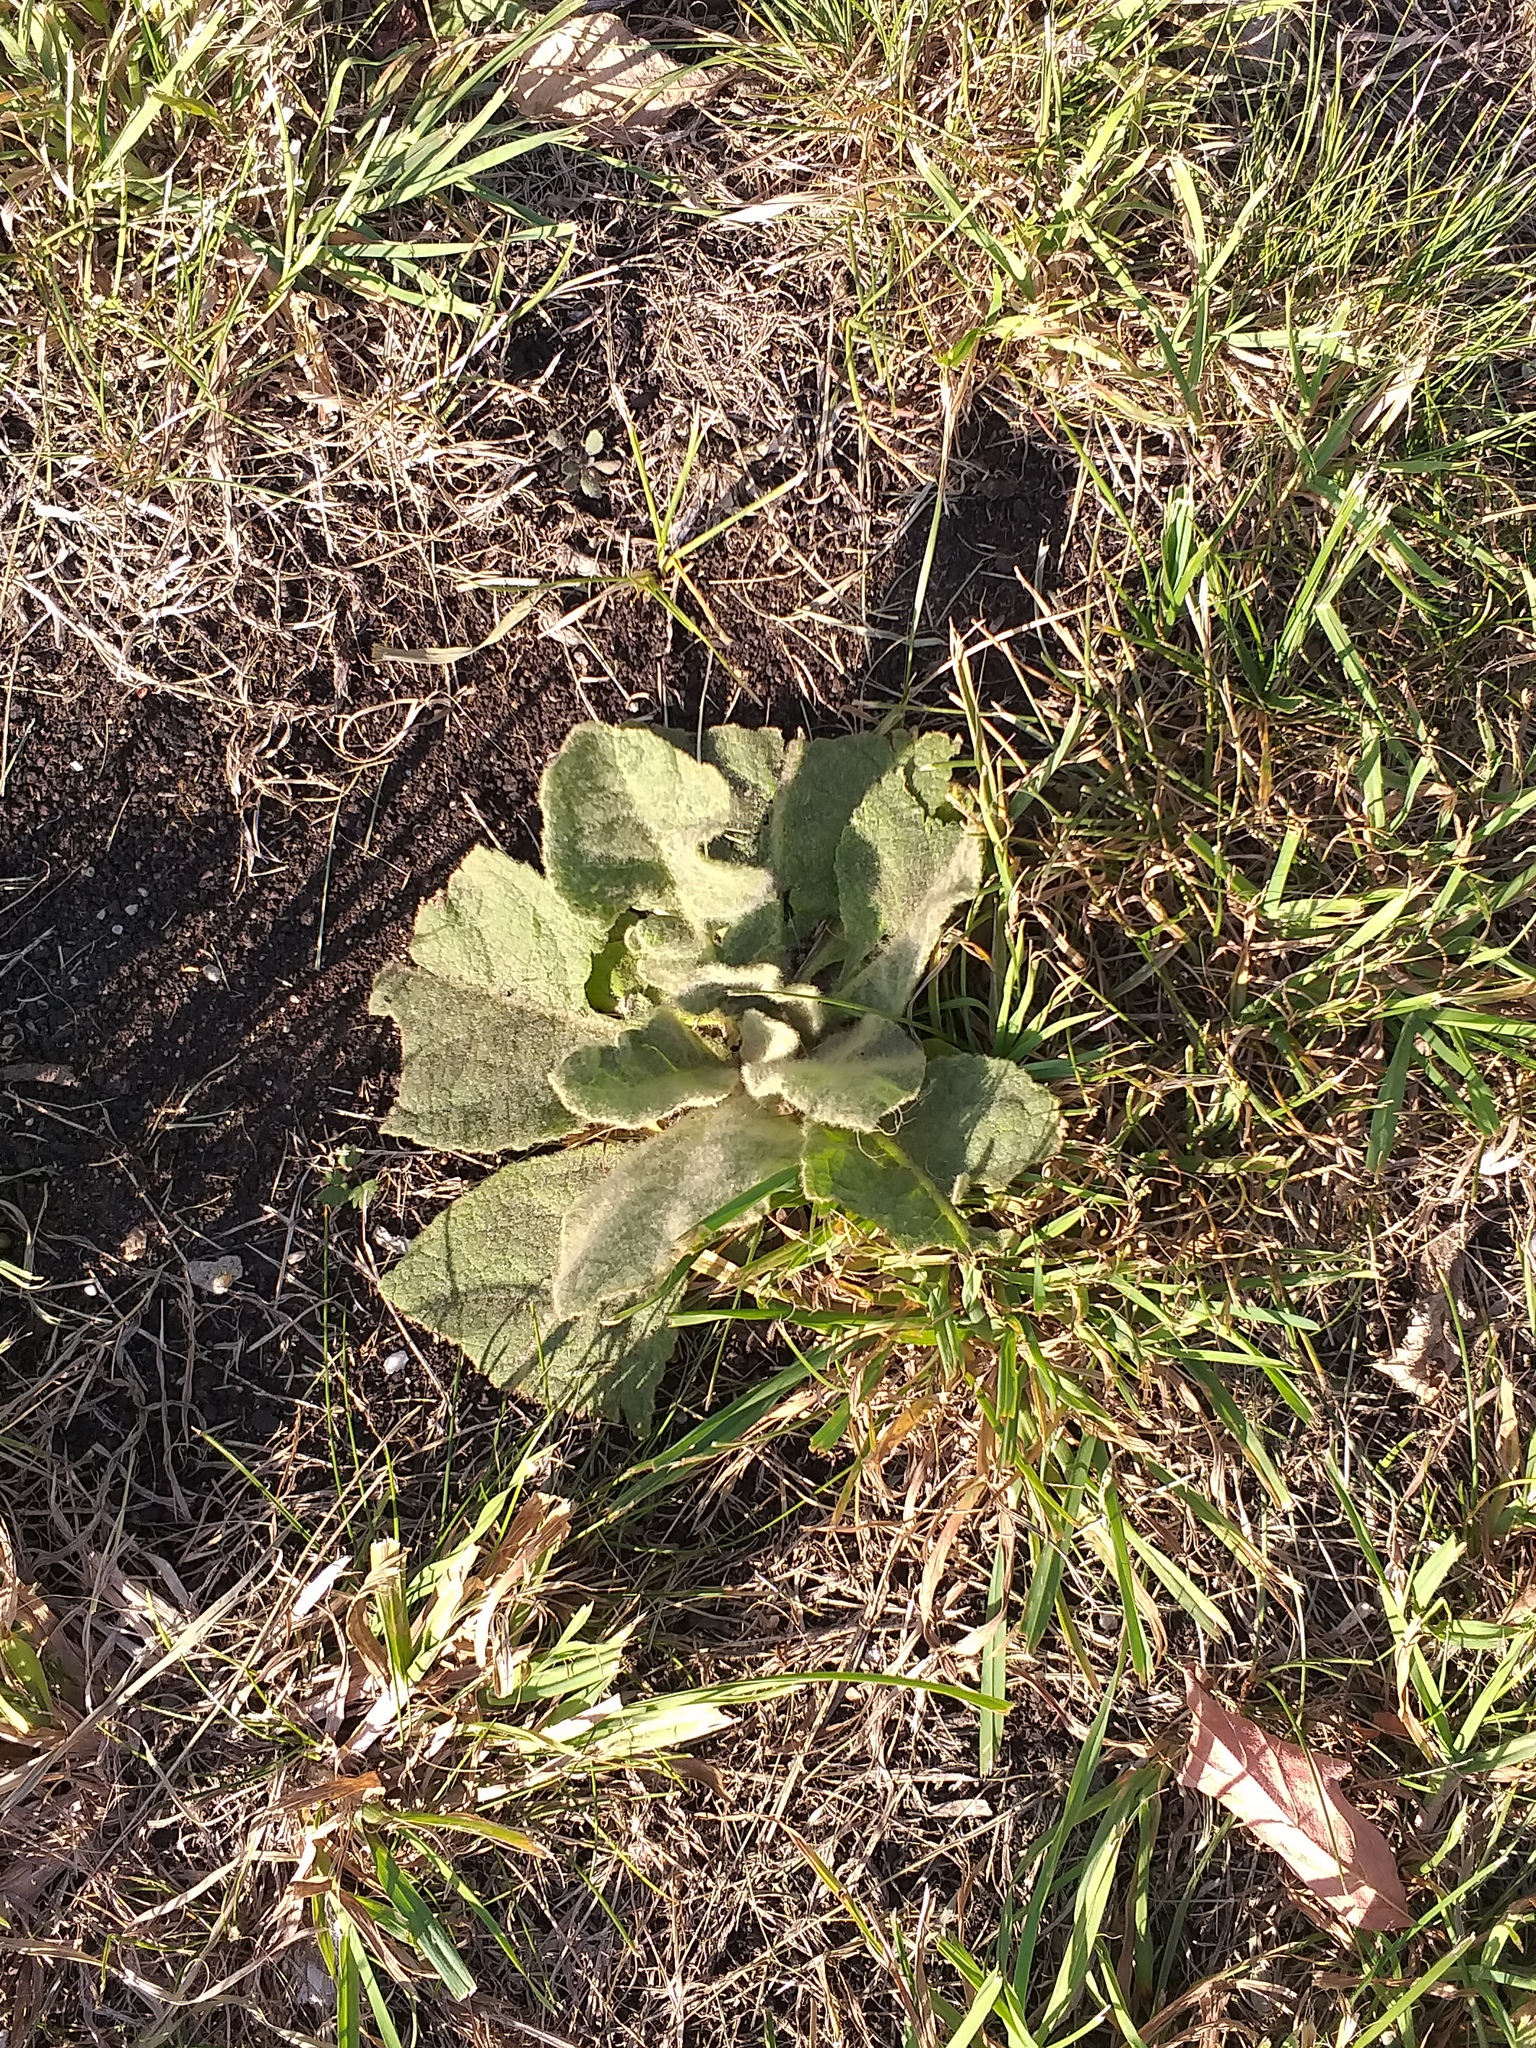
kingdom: Plantae
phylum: Tracheophyta
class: Magnoliopsida
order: Lamiales
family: Scrophulariaceae
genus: Verbascum
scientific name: Verbascum thapsus
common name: Common mullein
